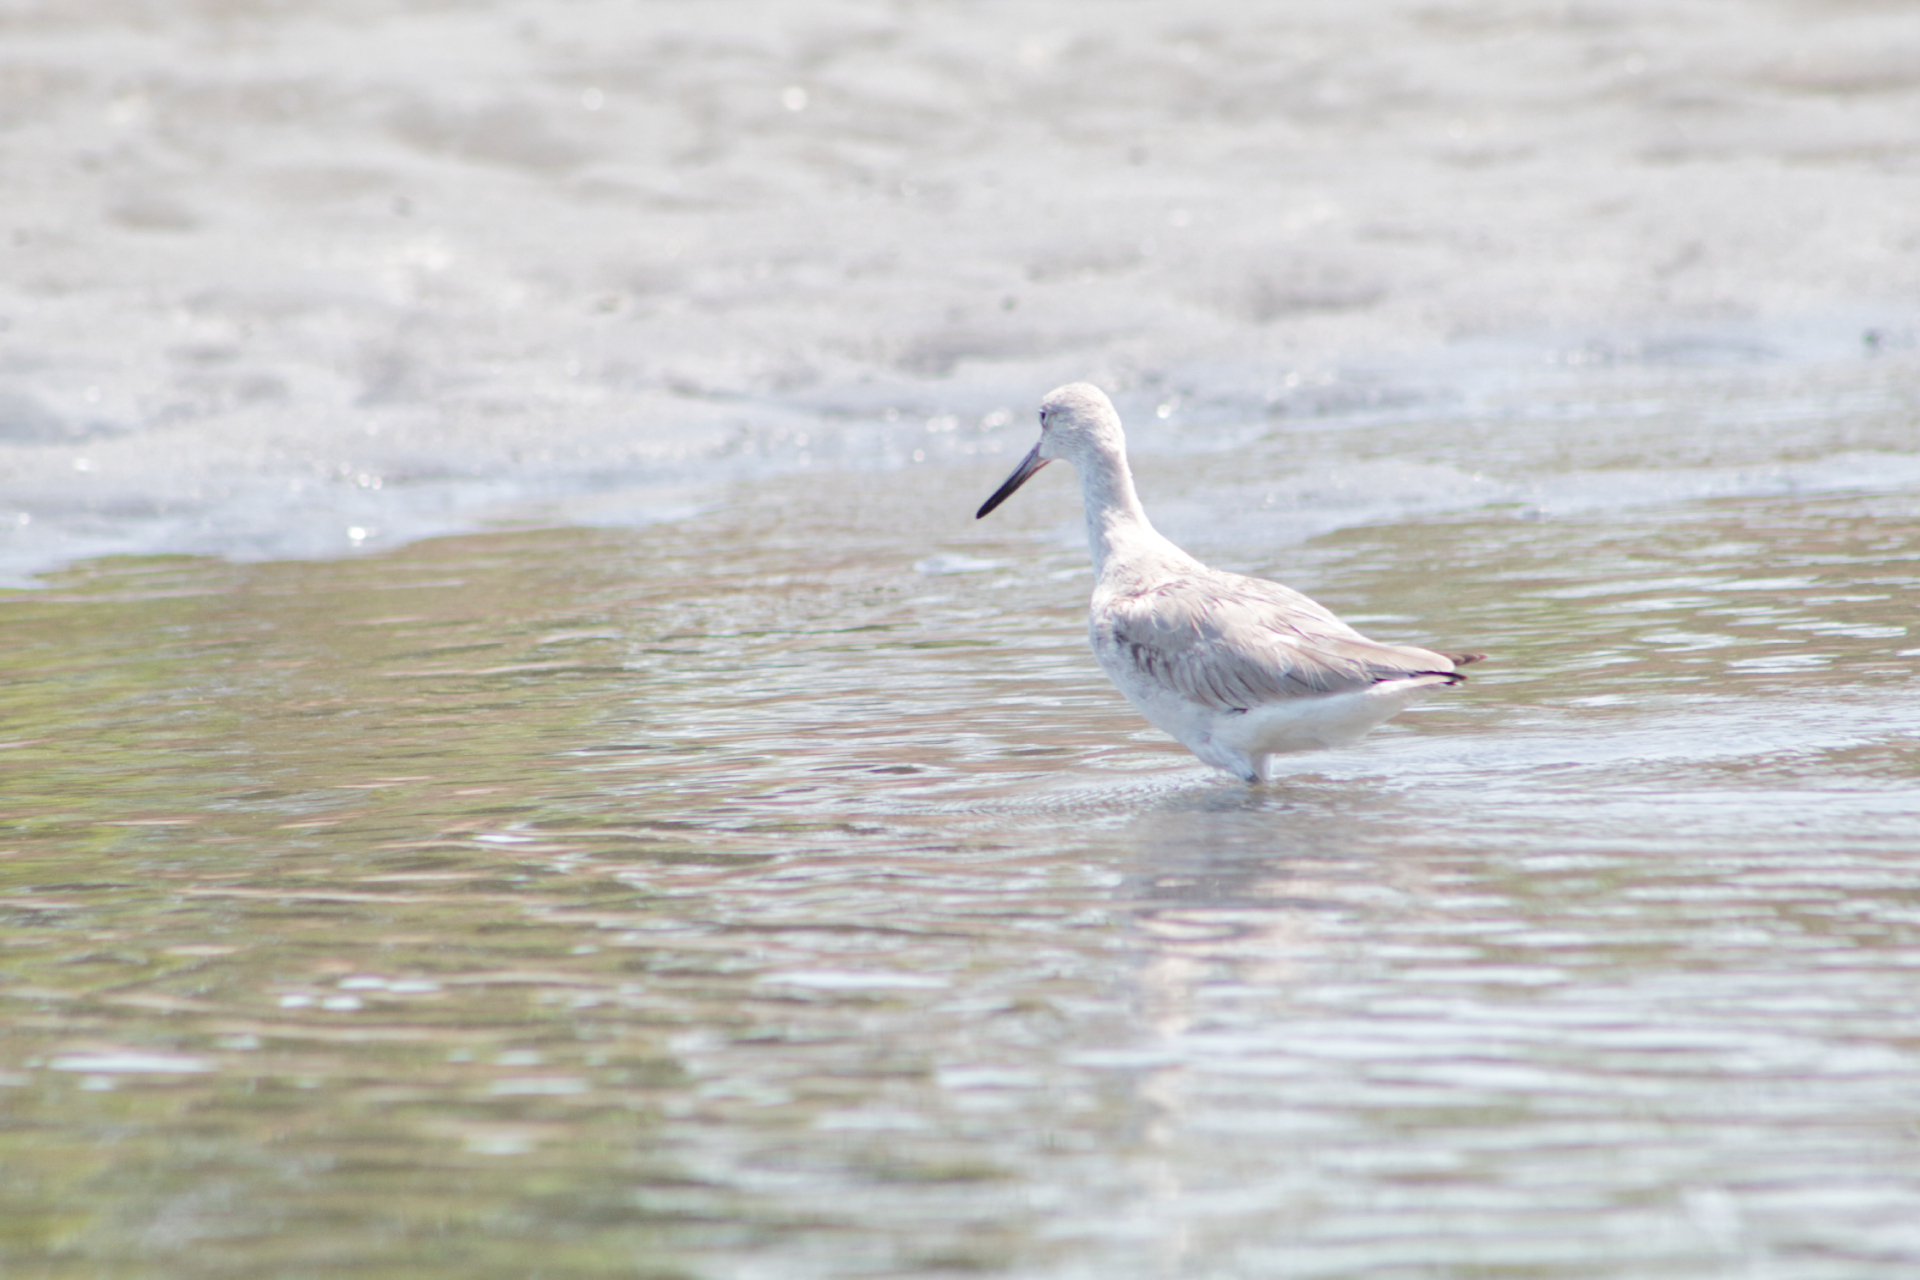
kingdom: Animalia
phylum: Chordata
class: Aves
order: Charadriiformes
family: Scolopacidae
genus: Tringa
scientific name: Tringa semipalmata
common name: Willet
